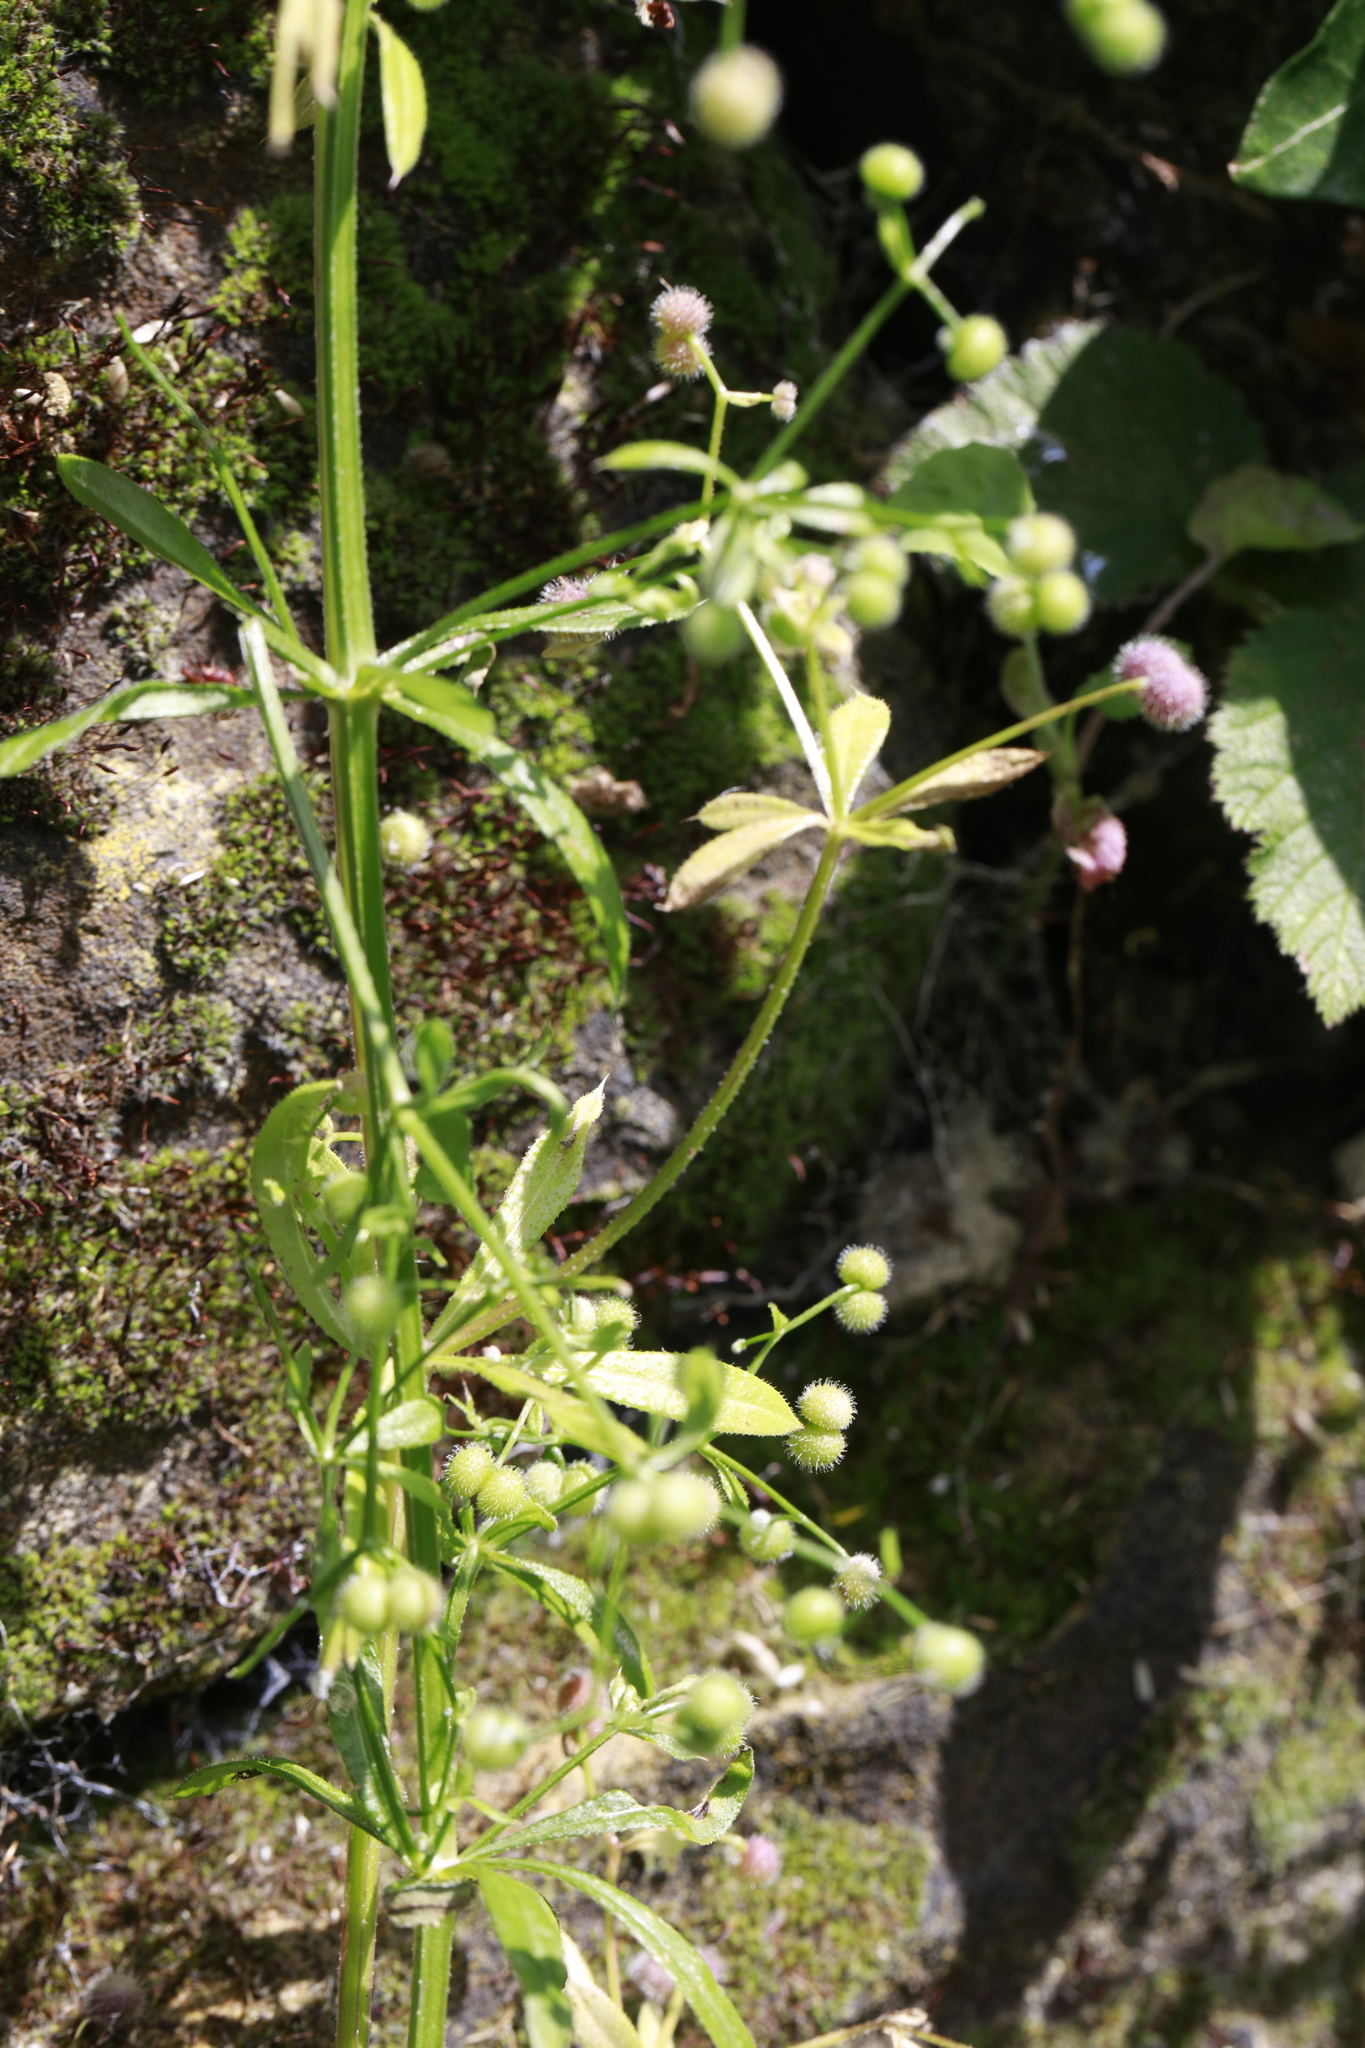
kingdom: Plantae
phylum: Tracheophyta
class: Magnoliopsida
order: Gentianales
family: Rubiaceae
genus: Galium
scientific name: Galium aparine
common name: Cleavers
